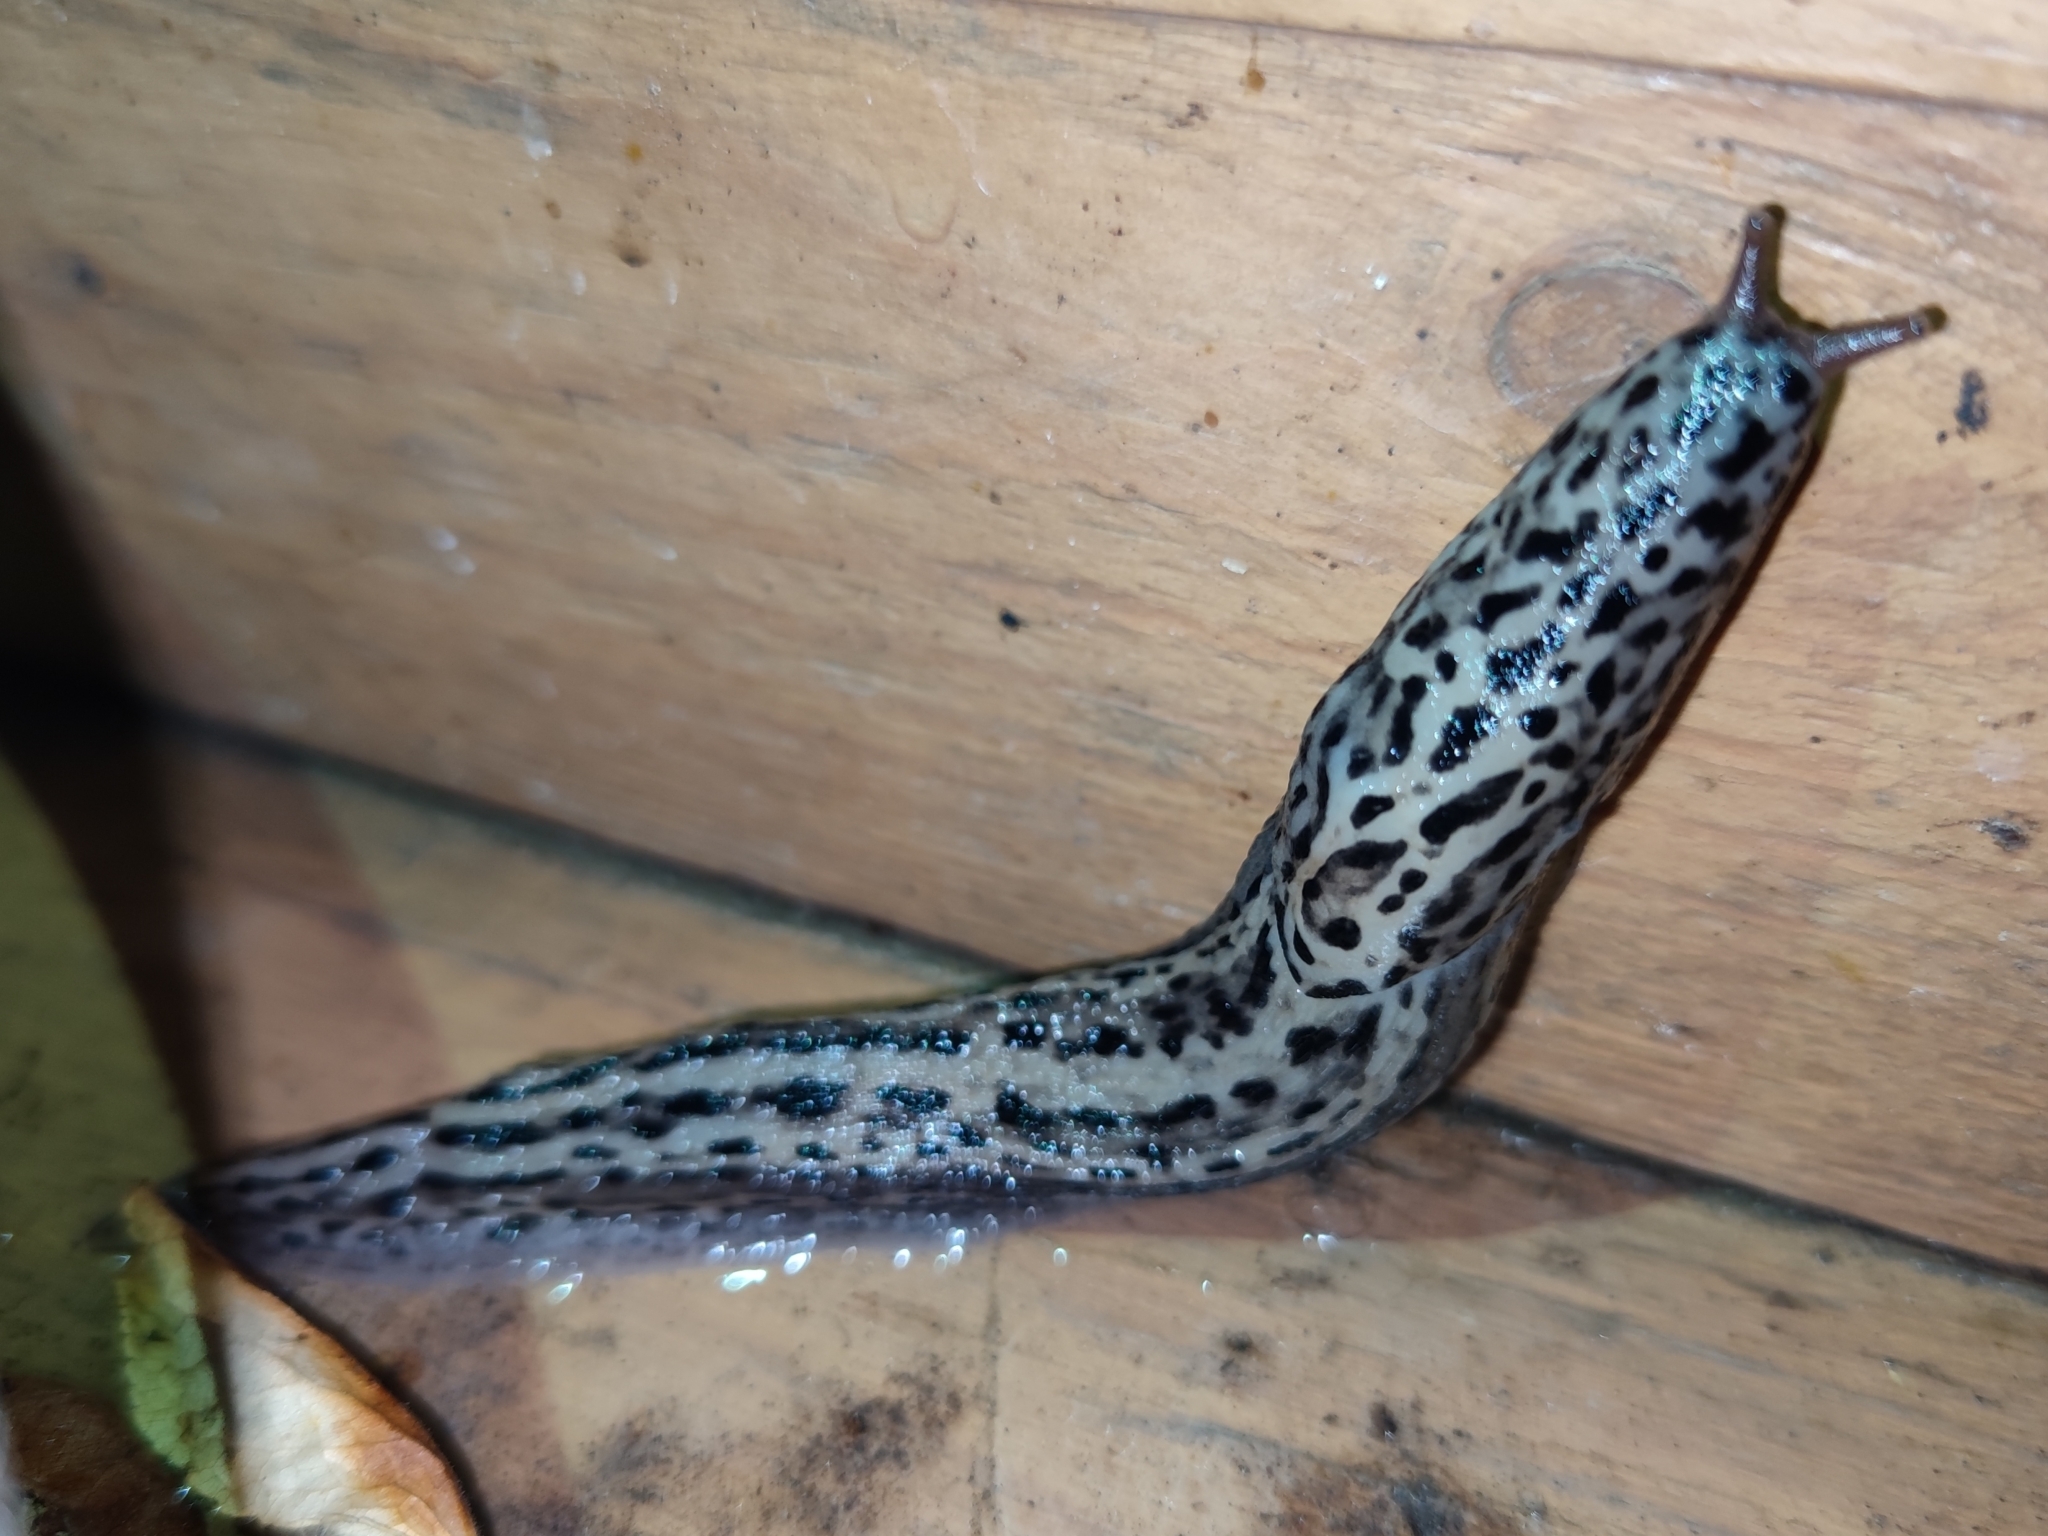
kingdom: Animalia
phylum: Mollusca
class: Gastropoda
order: Stylommatophora
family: Limacidae
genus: Limax
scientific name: Limax maximus
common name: Great grey slug
